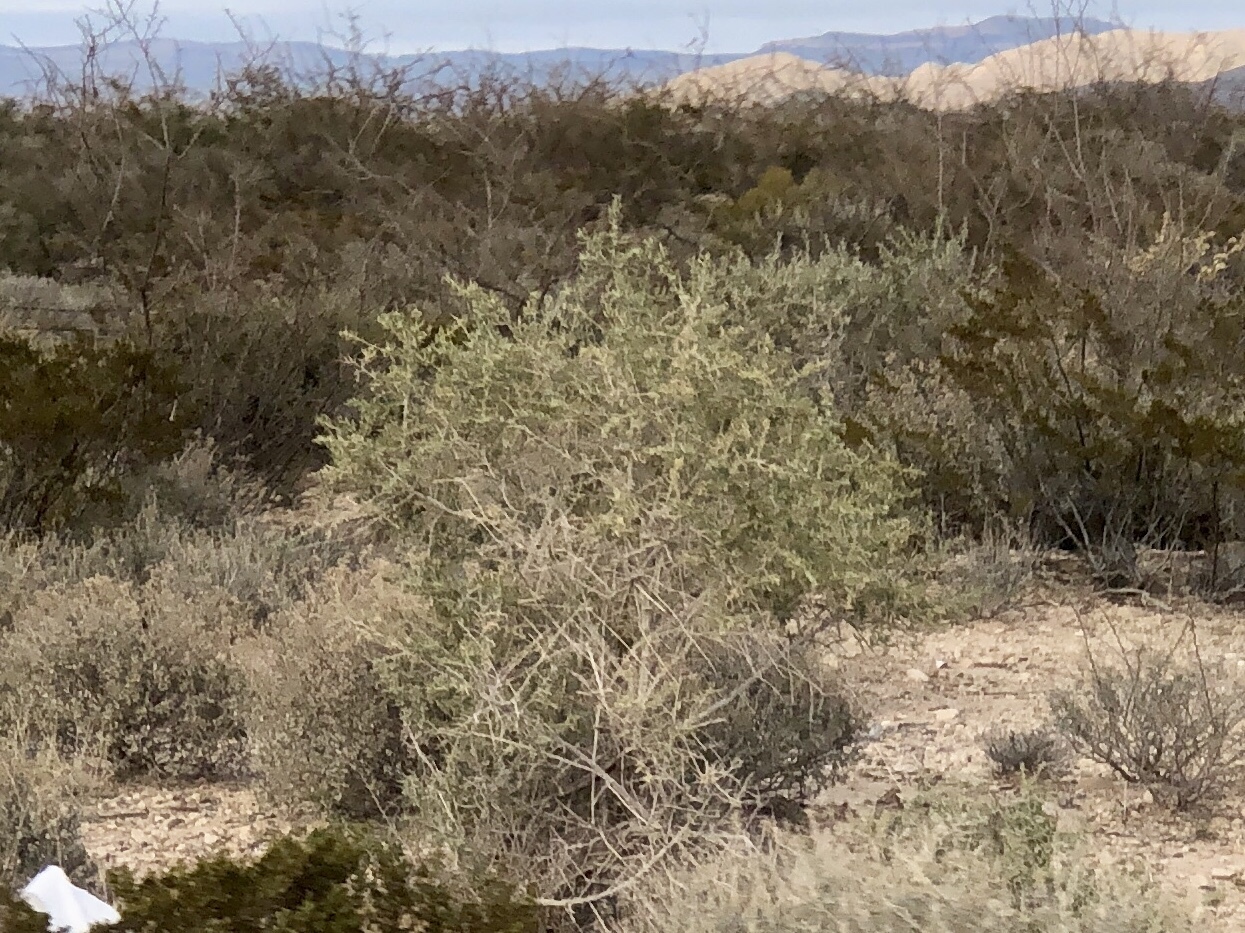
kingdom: Plantae
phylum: Tracheophyta
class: Magnoliopsida
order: Caryophyllales
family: Amaranthaceae
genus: Atriplex
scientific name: Atriplex canescens
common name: Four-wing saltbush
